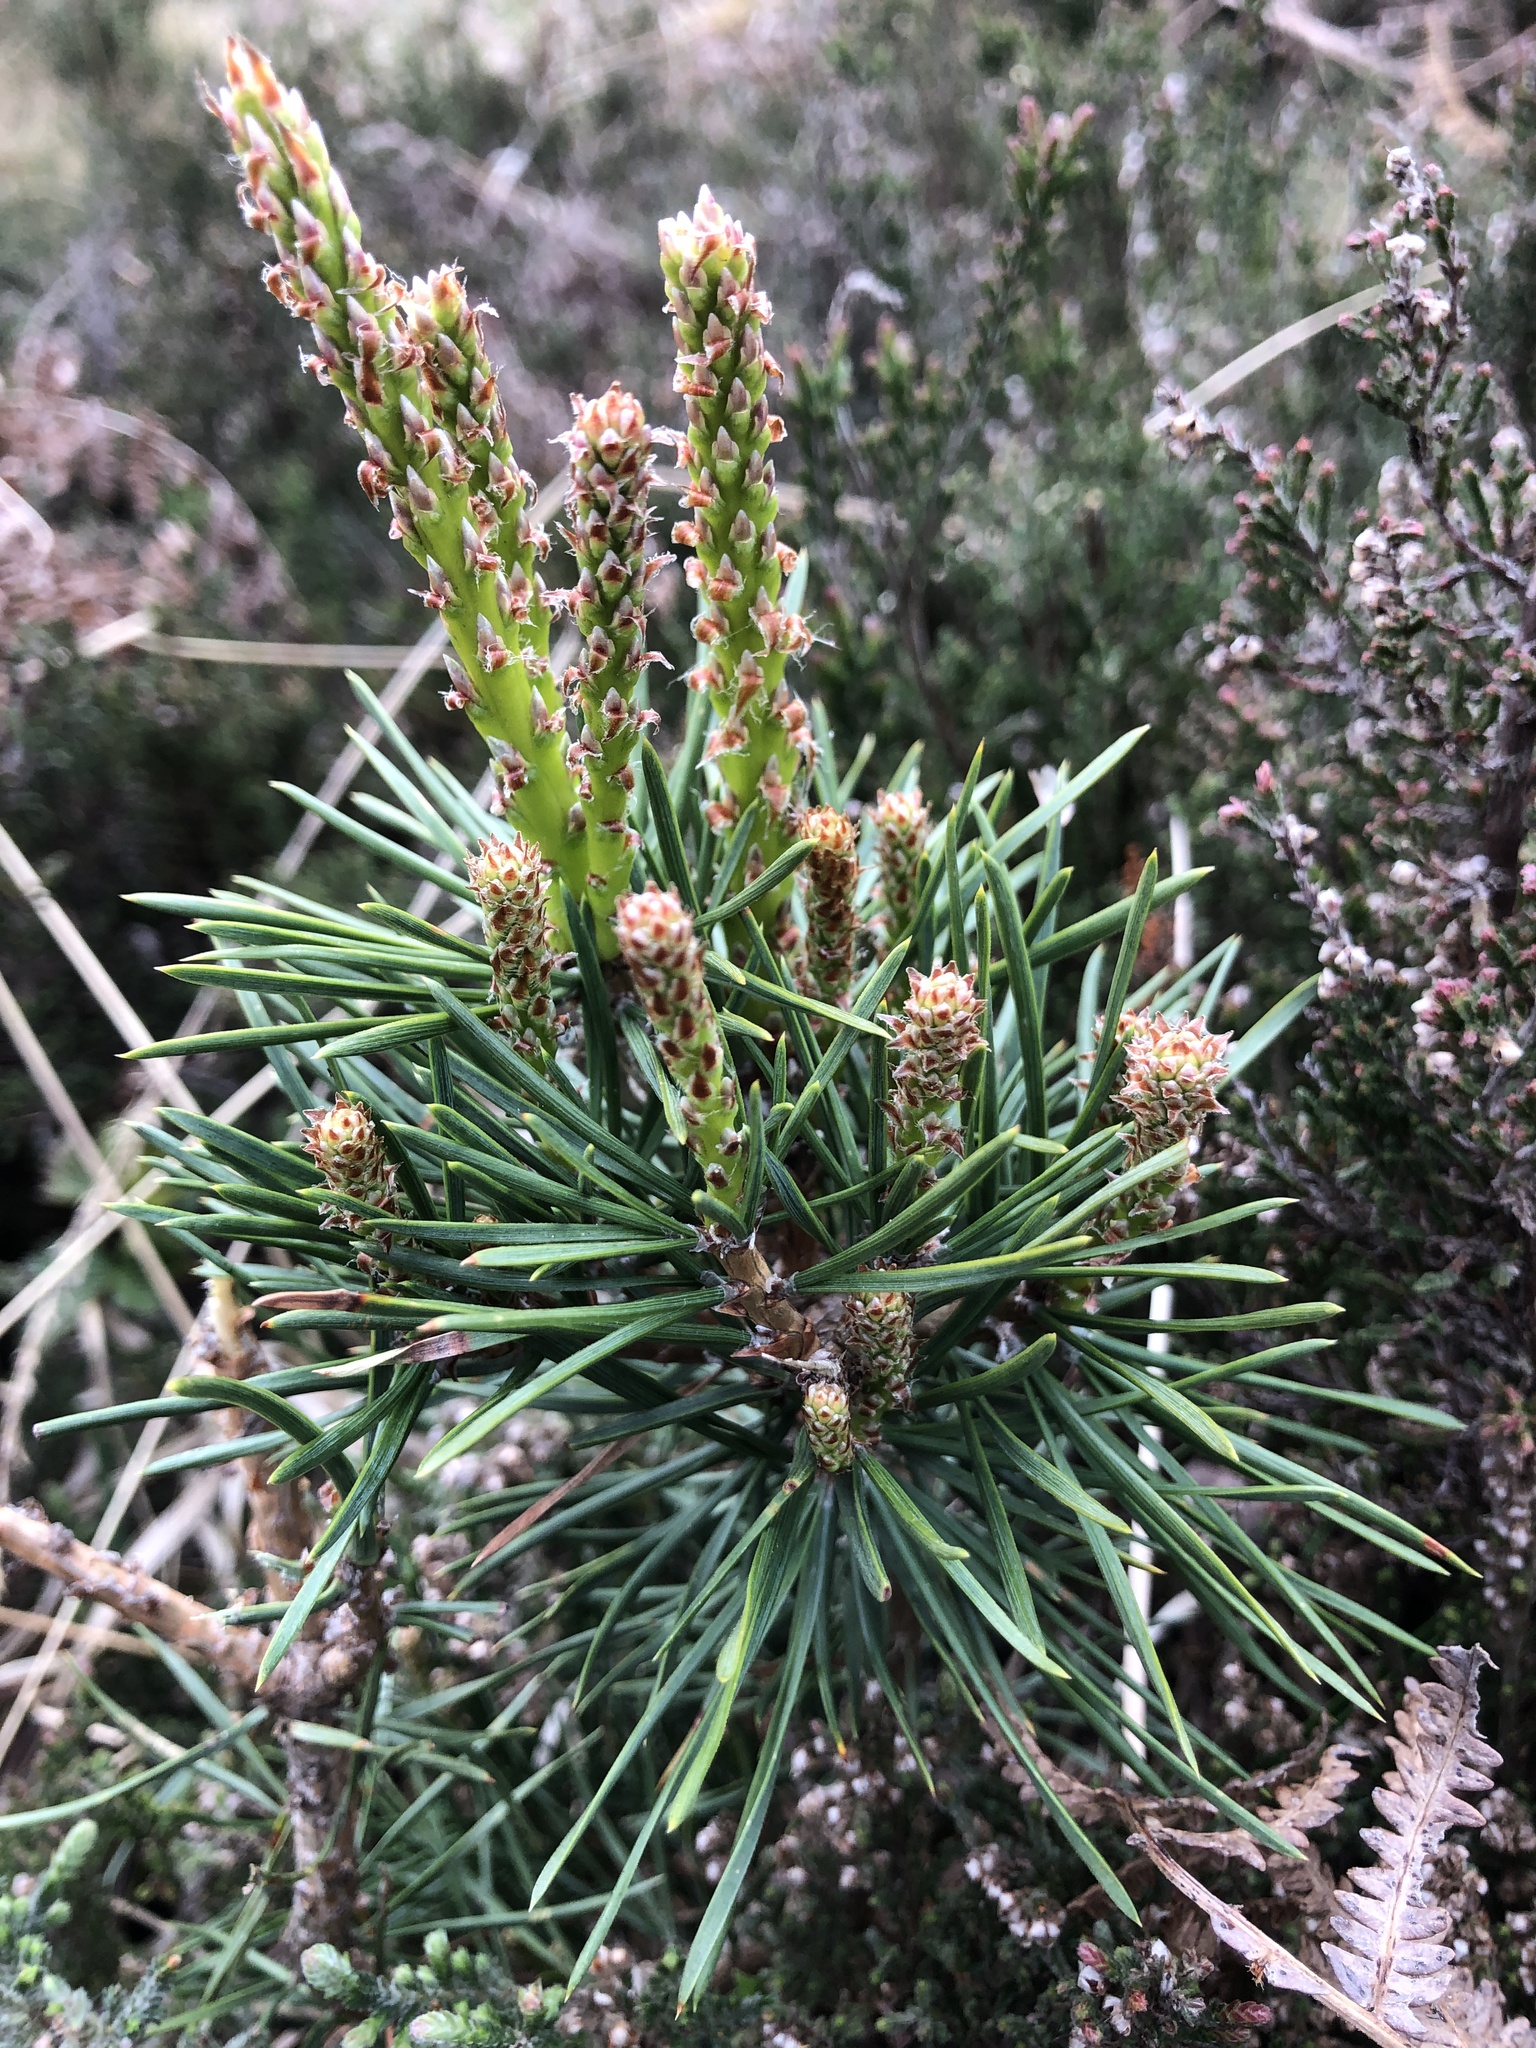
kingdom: Plantae
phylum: Tracheophyta
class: Pinopsida
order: Pinales
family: Pinaceae
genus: Pinus
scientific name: Pinus sylvestris
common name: Scots pine
